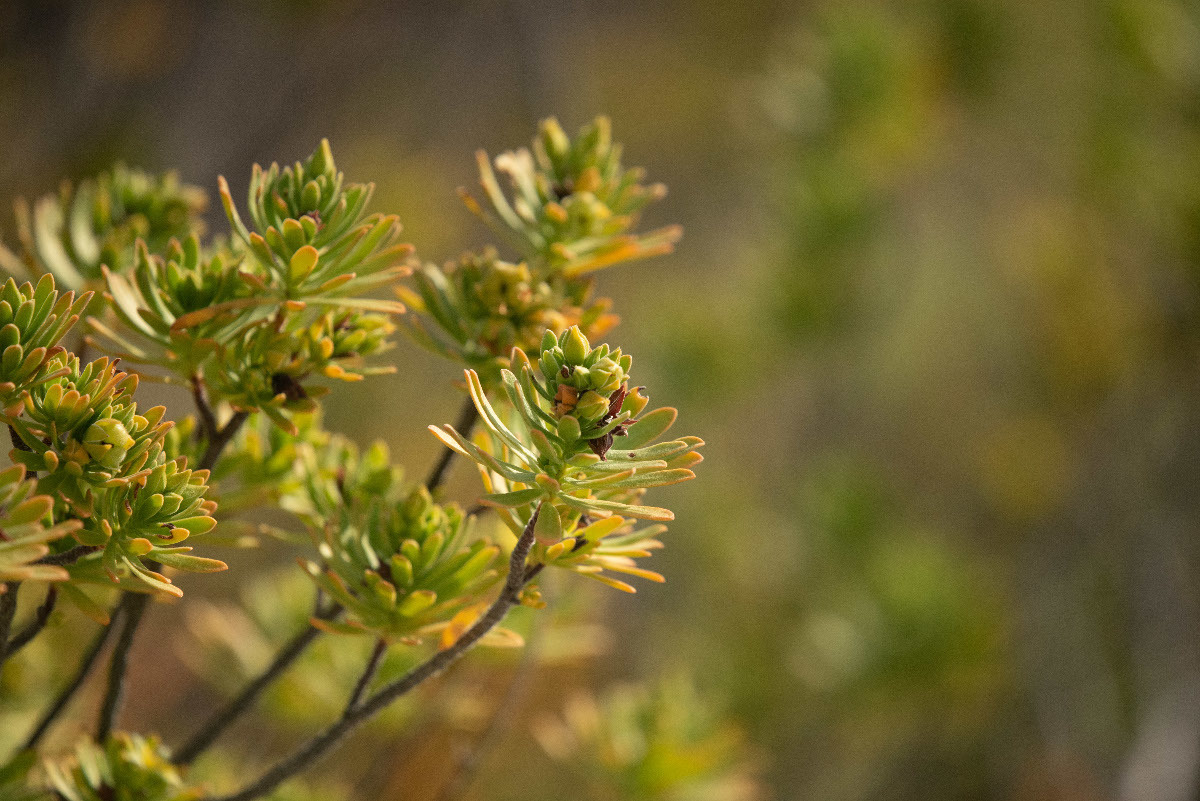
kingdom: Plantae
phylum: Tracheophyta
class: Magnoliopsida
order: Fabales
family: Surianaceae
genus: Suriana
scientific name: Suriana maritima
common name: Bay-cedar
